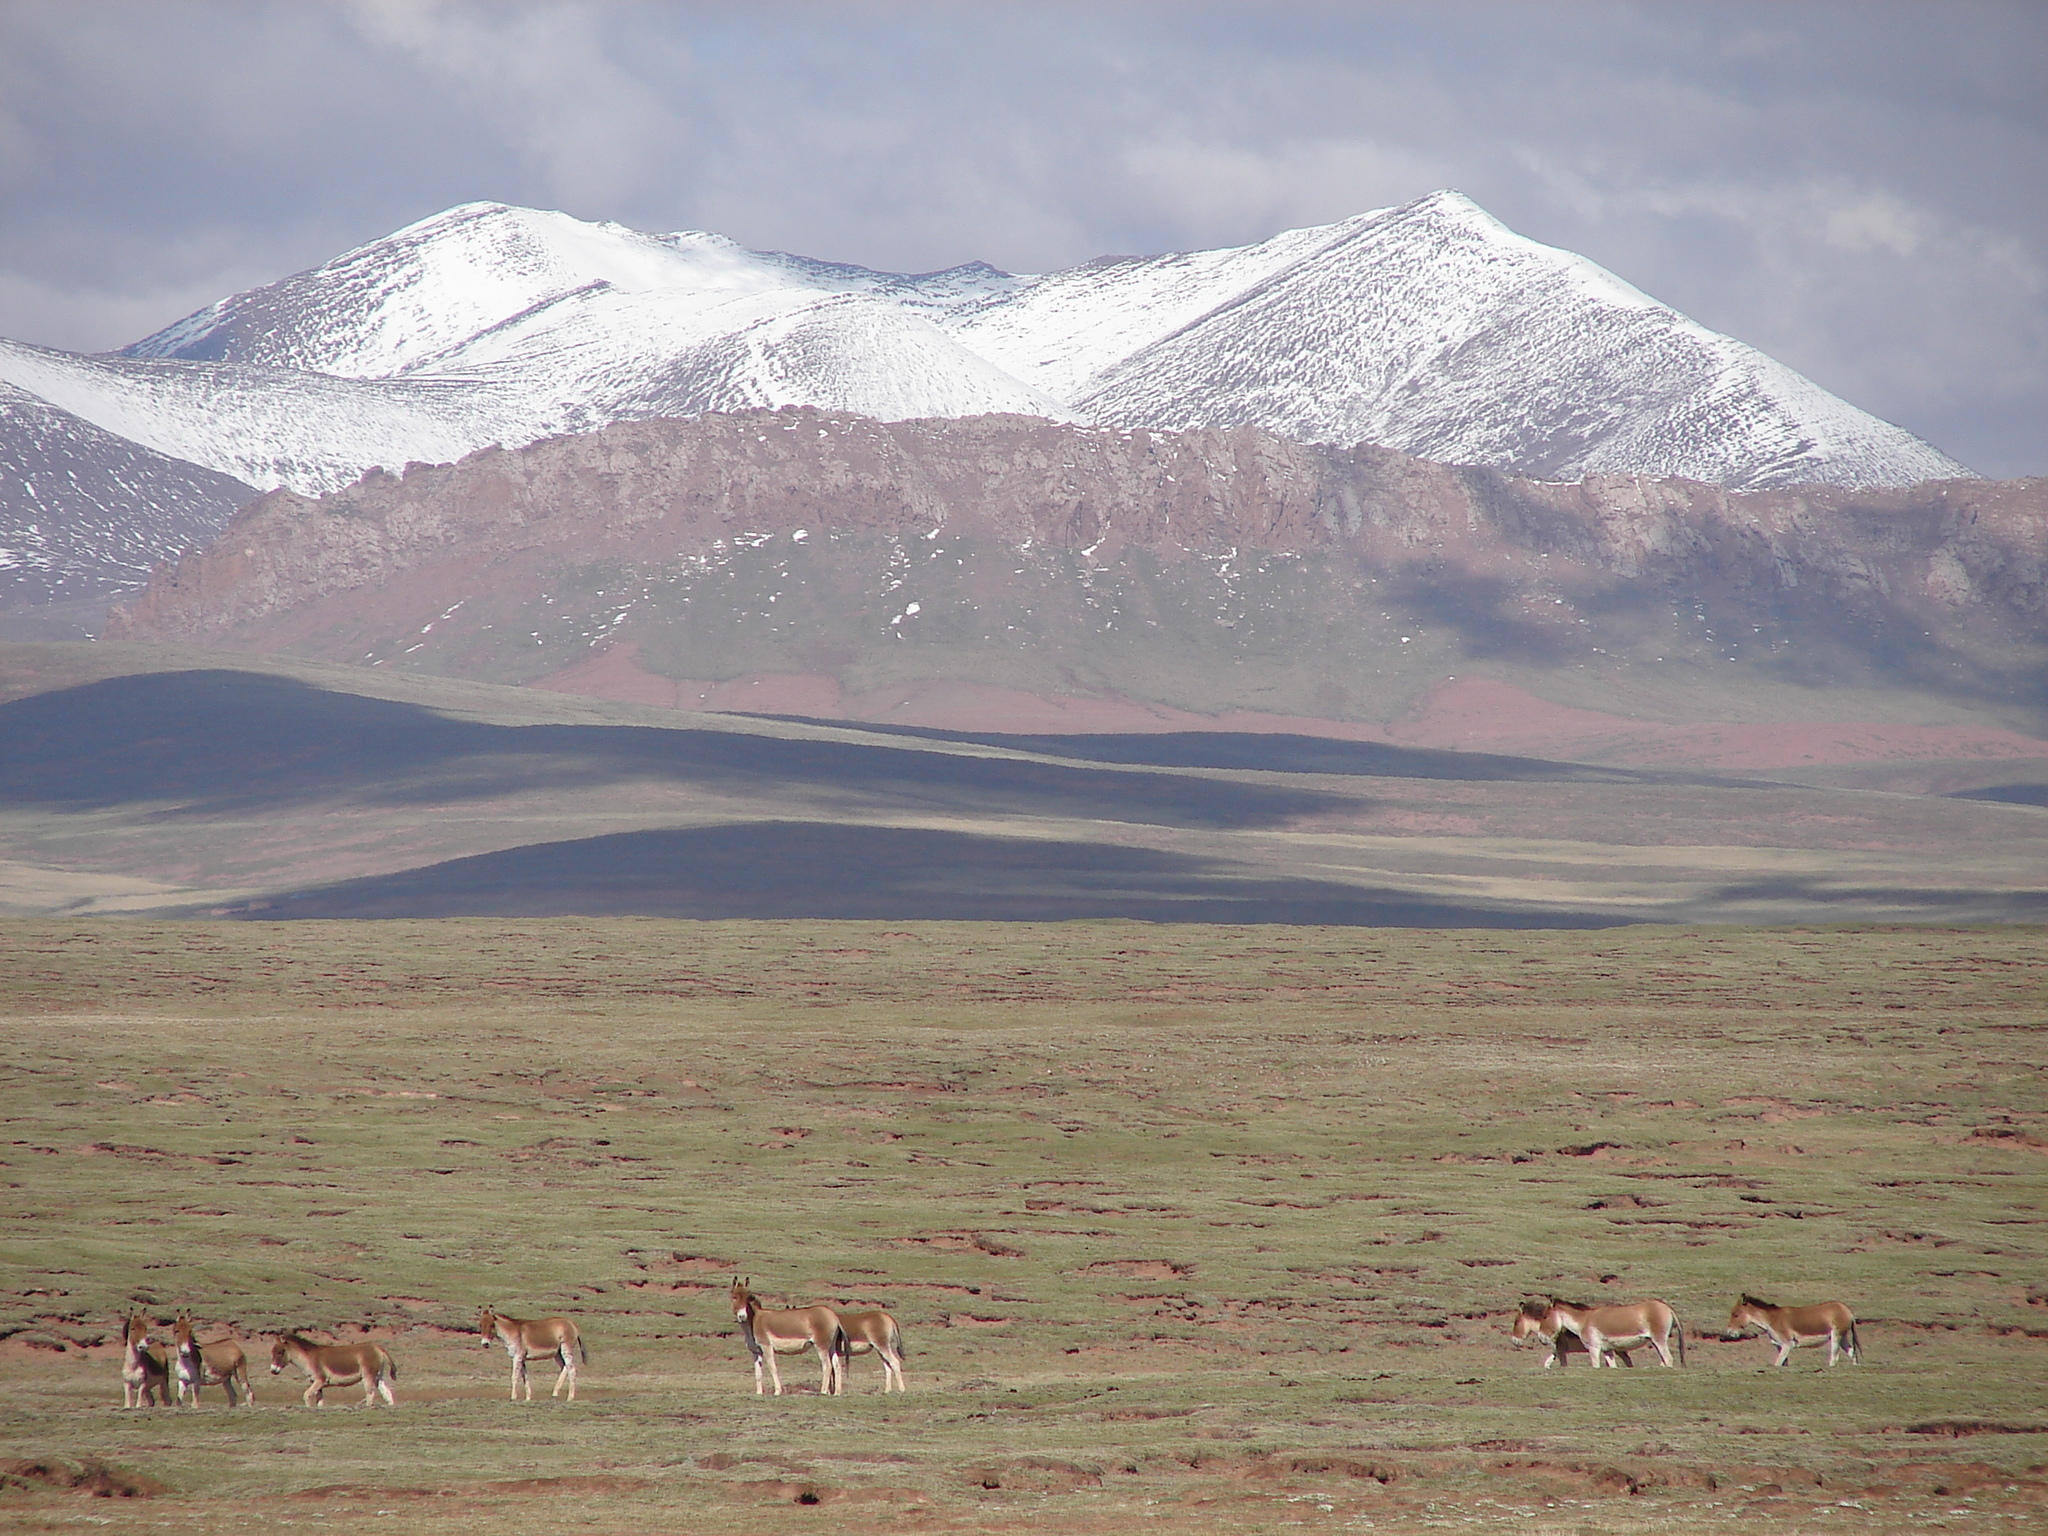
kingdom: Animalia
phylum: Chordata
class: Mammalia
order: Perissodactyla
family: Equidae
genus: Equus
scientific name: Equus kiang
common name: Kiang
